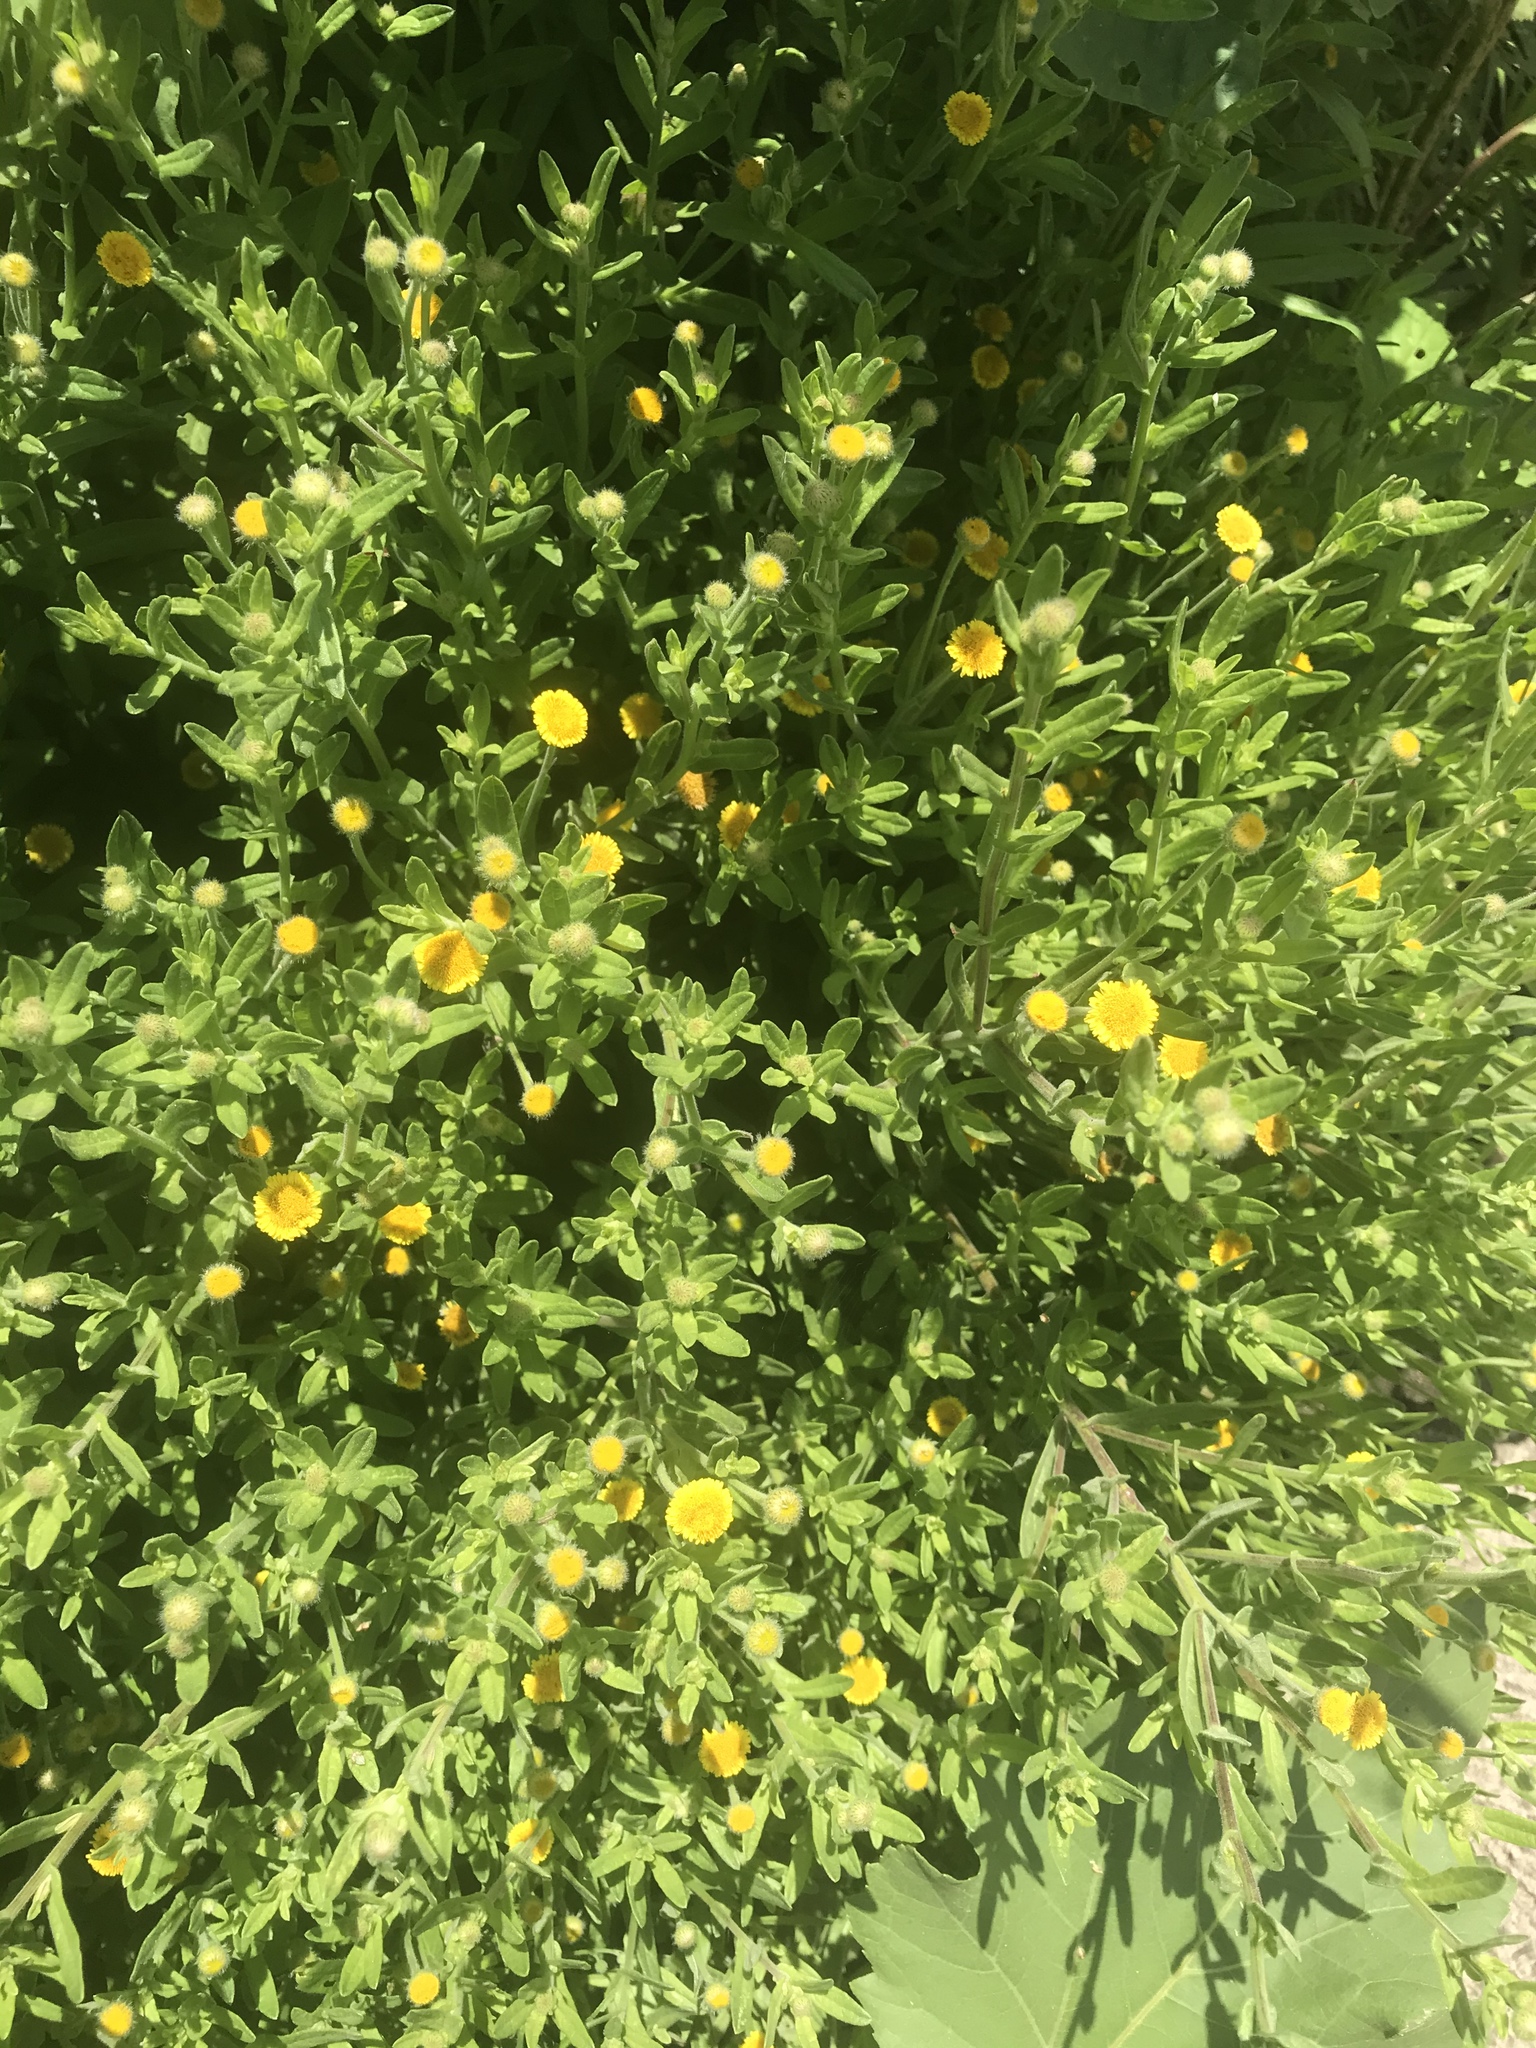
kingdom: Plantae
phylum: Tracheophyta
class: Magnoliopsida
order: Asterales
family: Asteraceae
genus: Pulicaria
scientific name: Pulicaria paludosa
